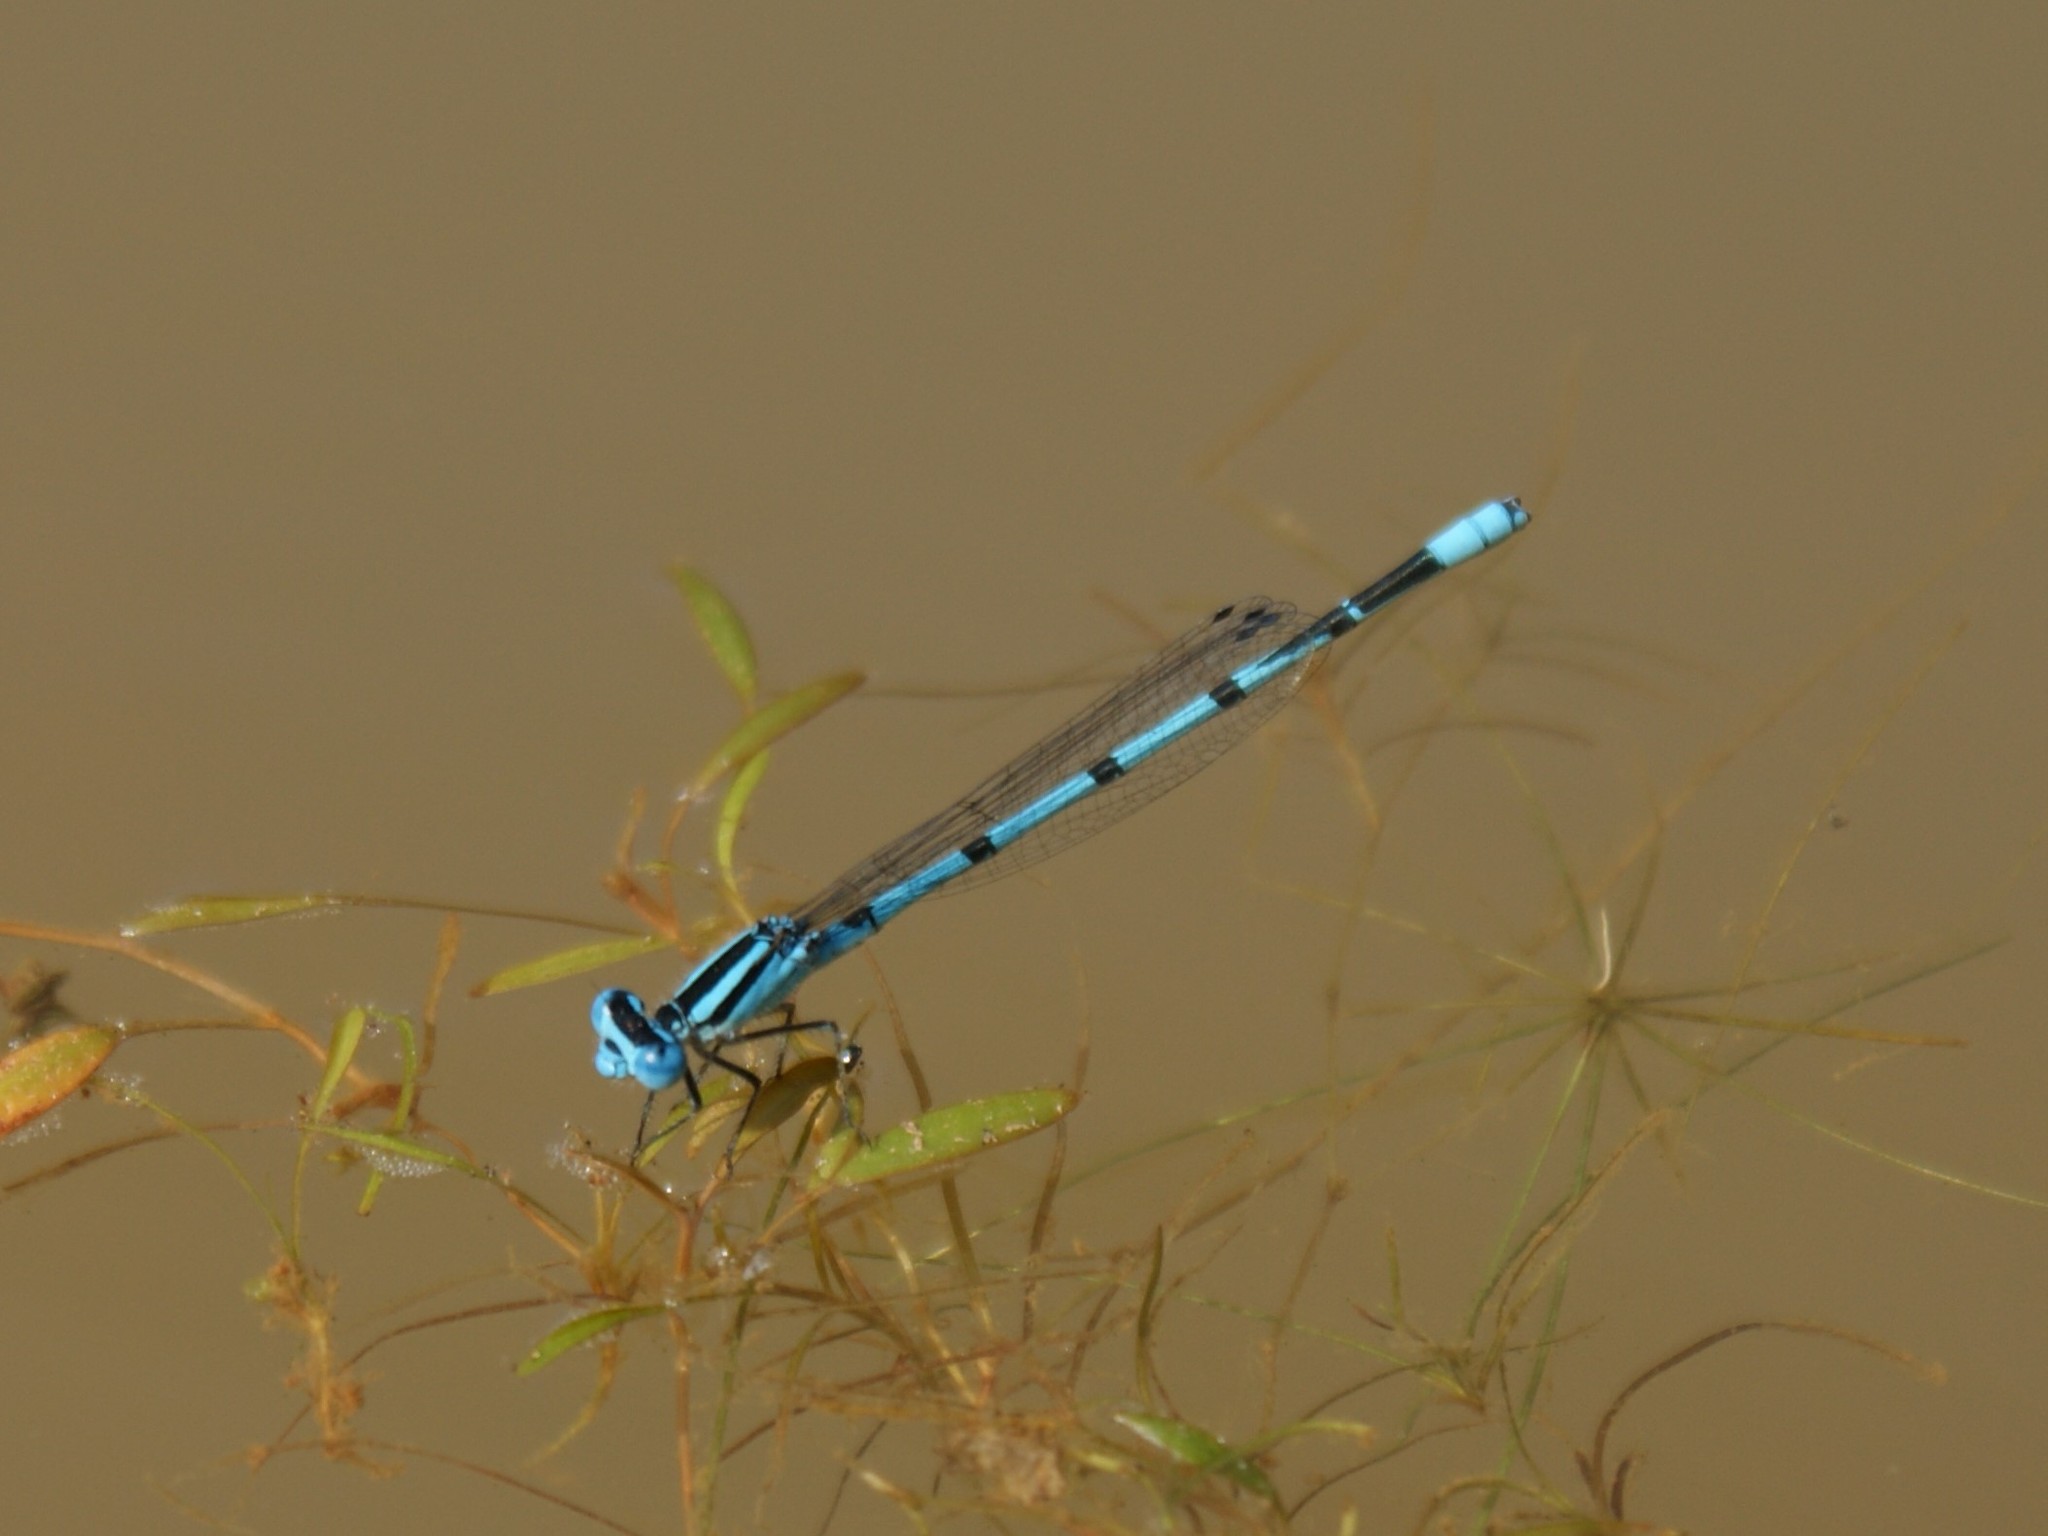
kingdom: Animalia
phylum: Arthropoda
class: Insecta
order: Odonata
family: Coenagrionidae
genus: Enallagma
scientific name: Enallagma doubledayi
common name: Atlantic bluet
